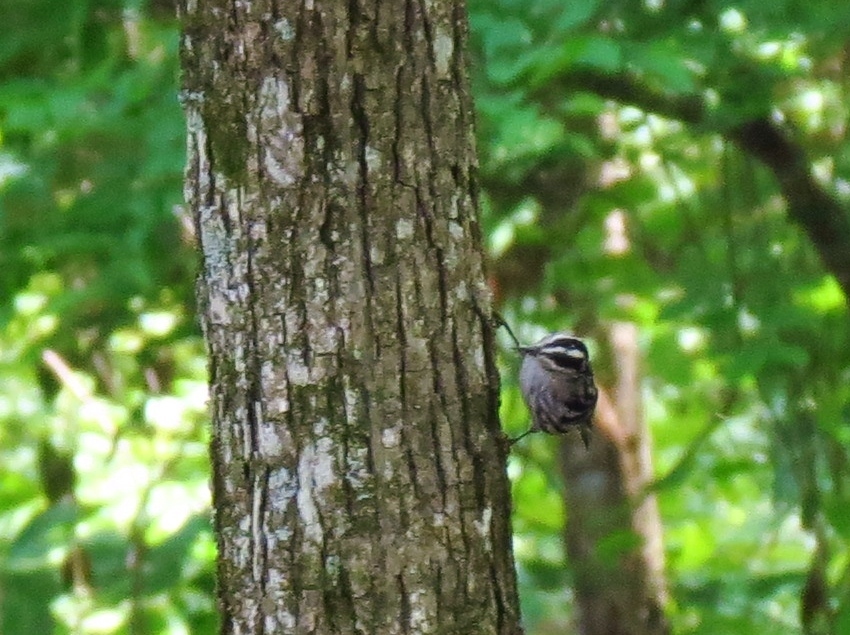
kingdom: Animalia
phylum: Chordata
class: Aves
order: Passeriformes
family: Parulidae
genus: Mniotilta
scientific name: Mniotilta varia
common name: Black-and-white warbler
